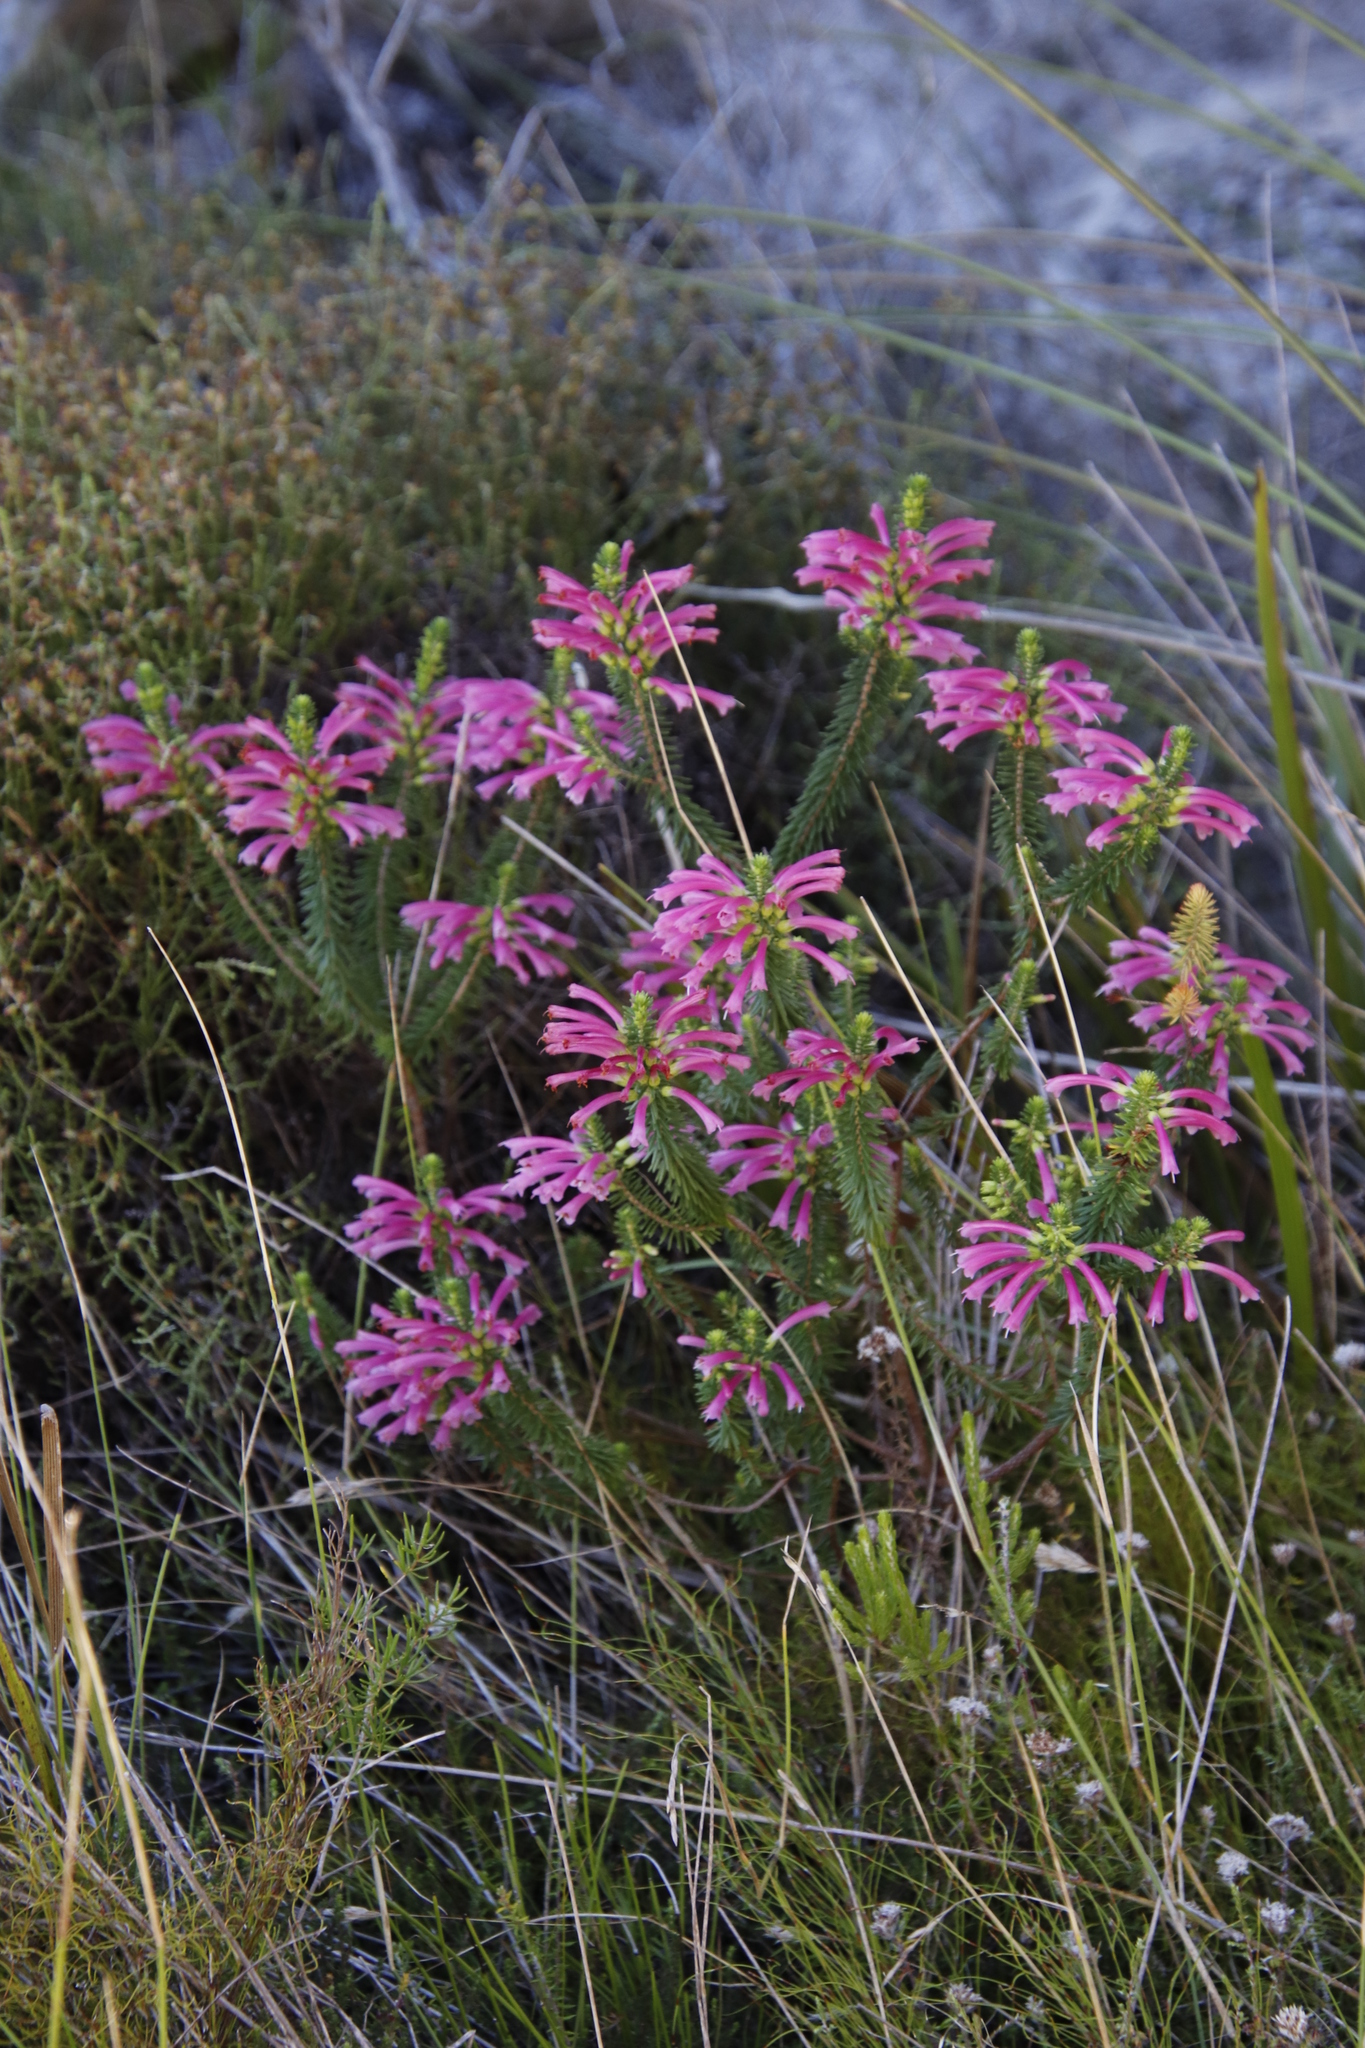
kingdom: Plantae
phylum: Tracheophyta
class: Magnoliopsida
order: Ericales
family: Ericaceae
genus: Erica
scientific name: Erica abietina
